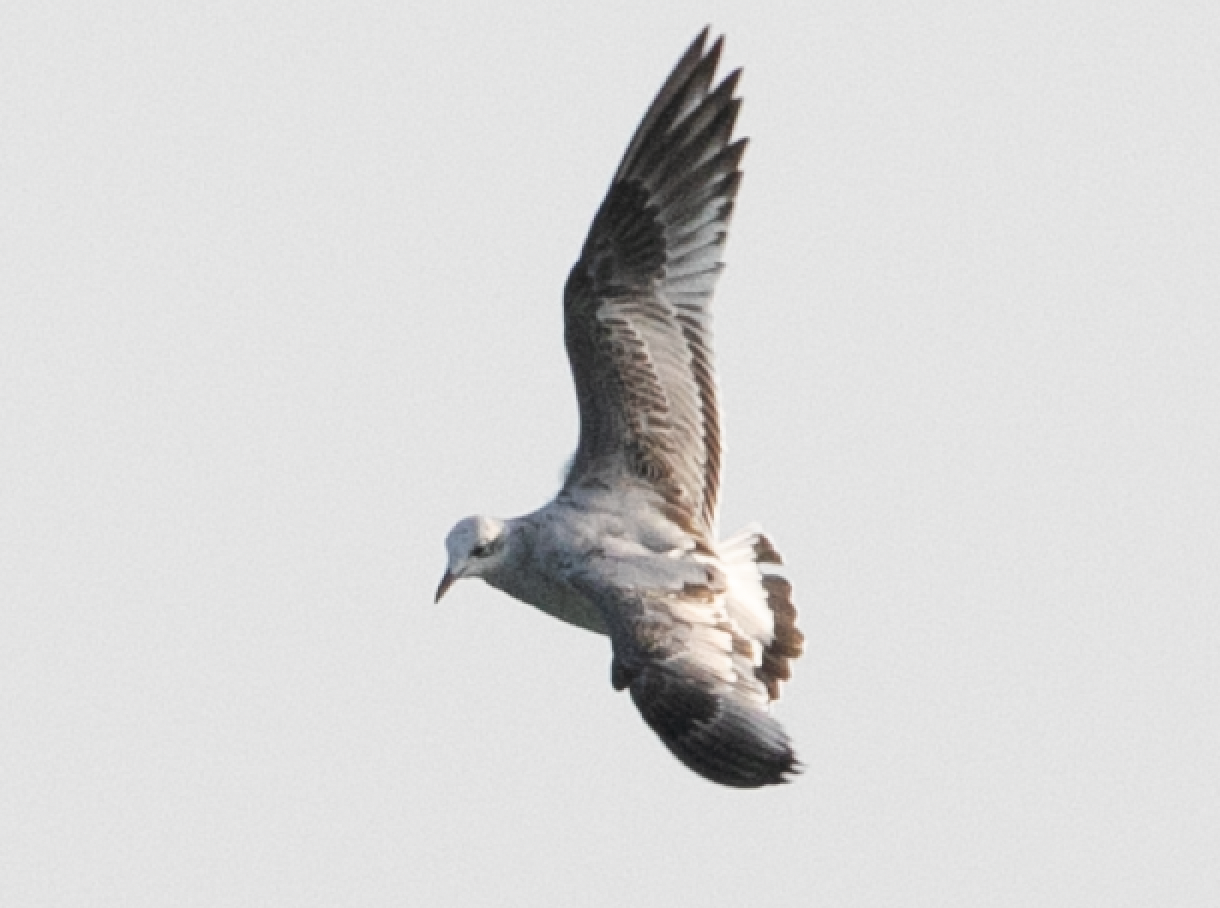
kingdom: Animalia
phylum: Chordata
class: Aves
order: Charadriiformes
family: Laridae
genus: Ichthyaetus
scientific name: Ichthyaetus melanocephalus
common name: Mediterranean gull
